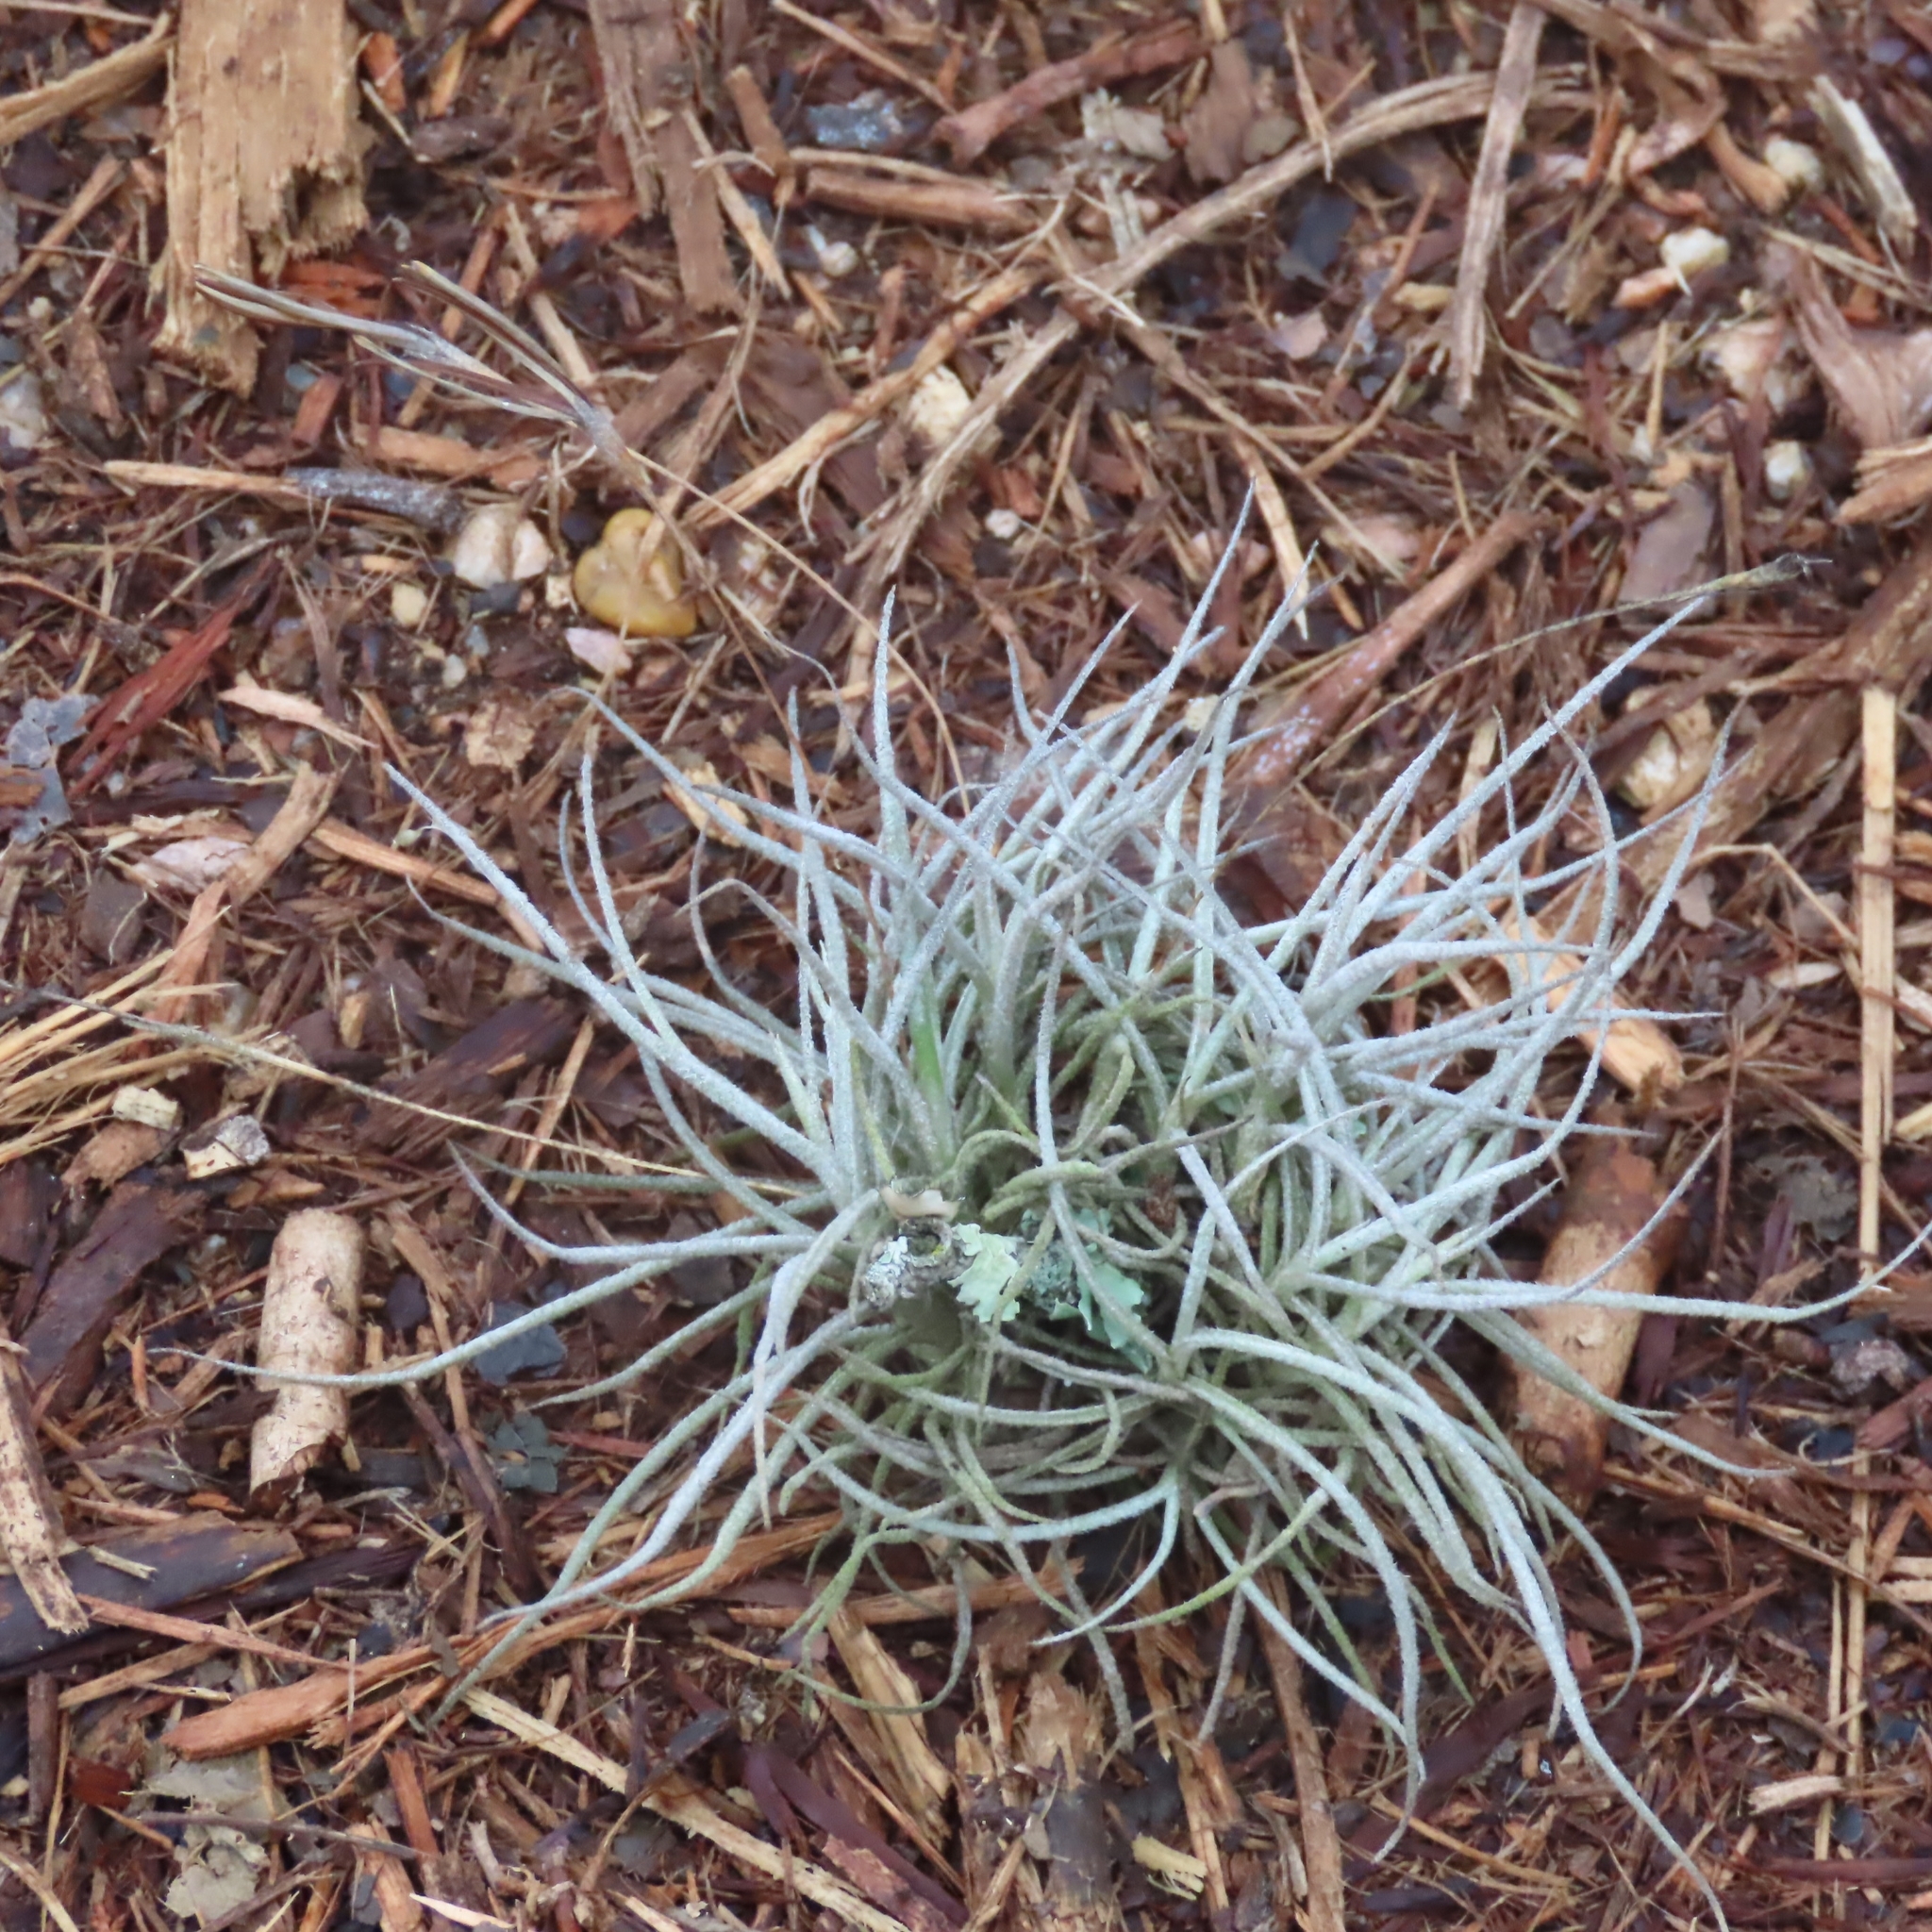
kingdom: Plantae
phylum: Tracheophyta
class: Liliopsida
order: Poales
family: Bromeliaceae
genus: Tillandsia
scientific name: Tillandsia recurvata
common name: Small ballmoss
